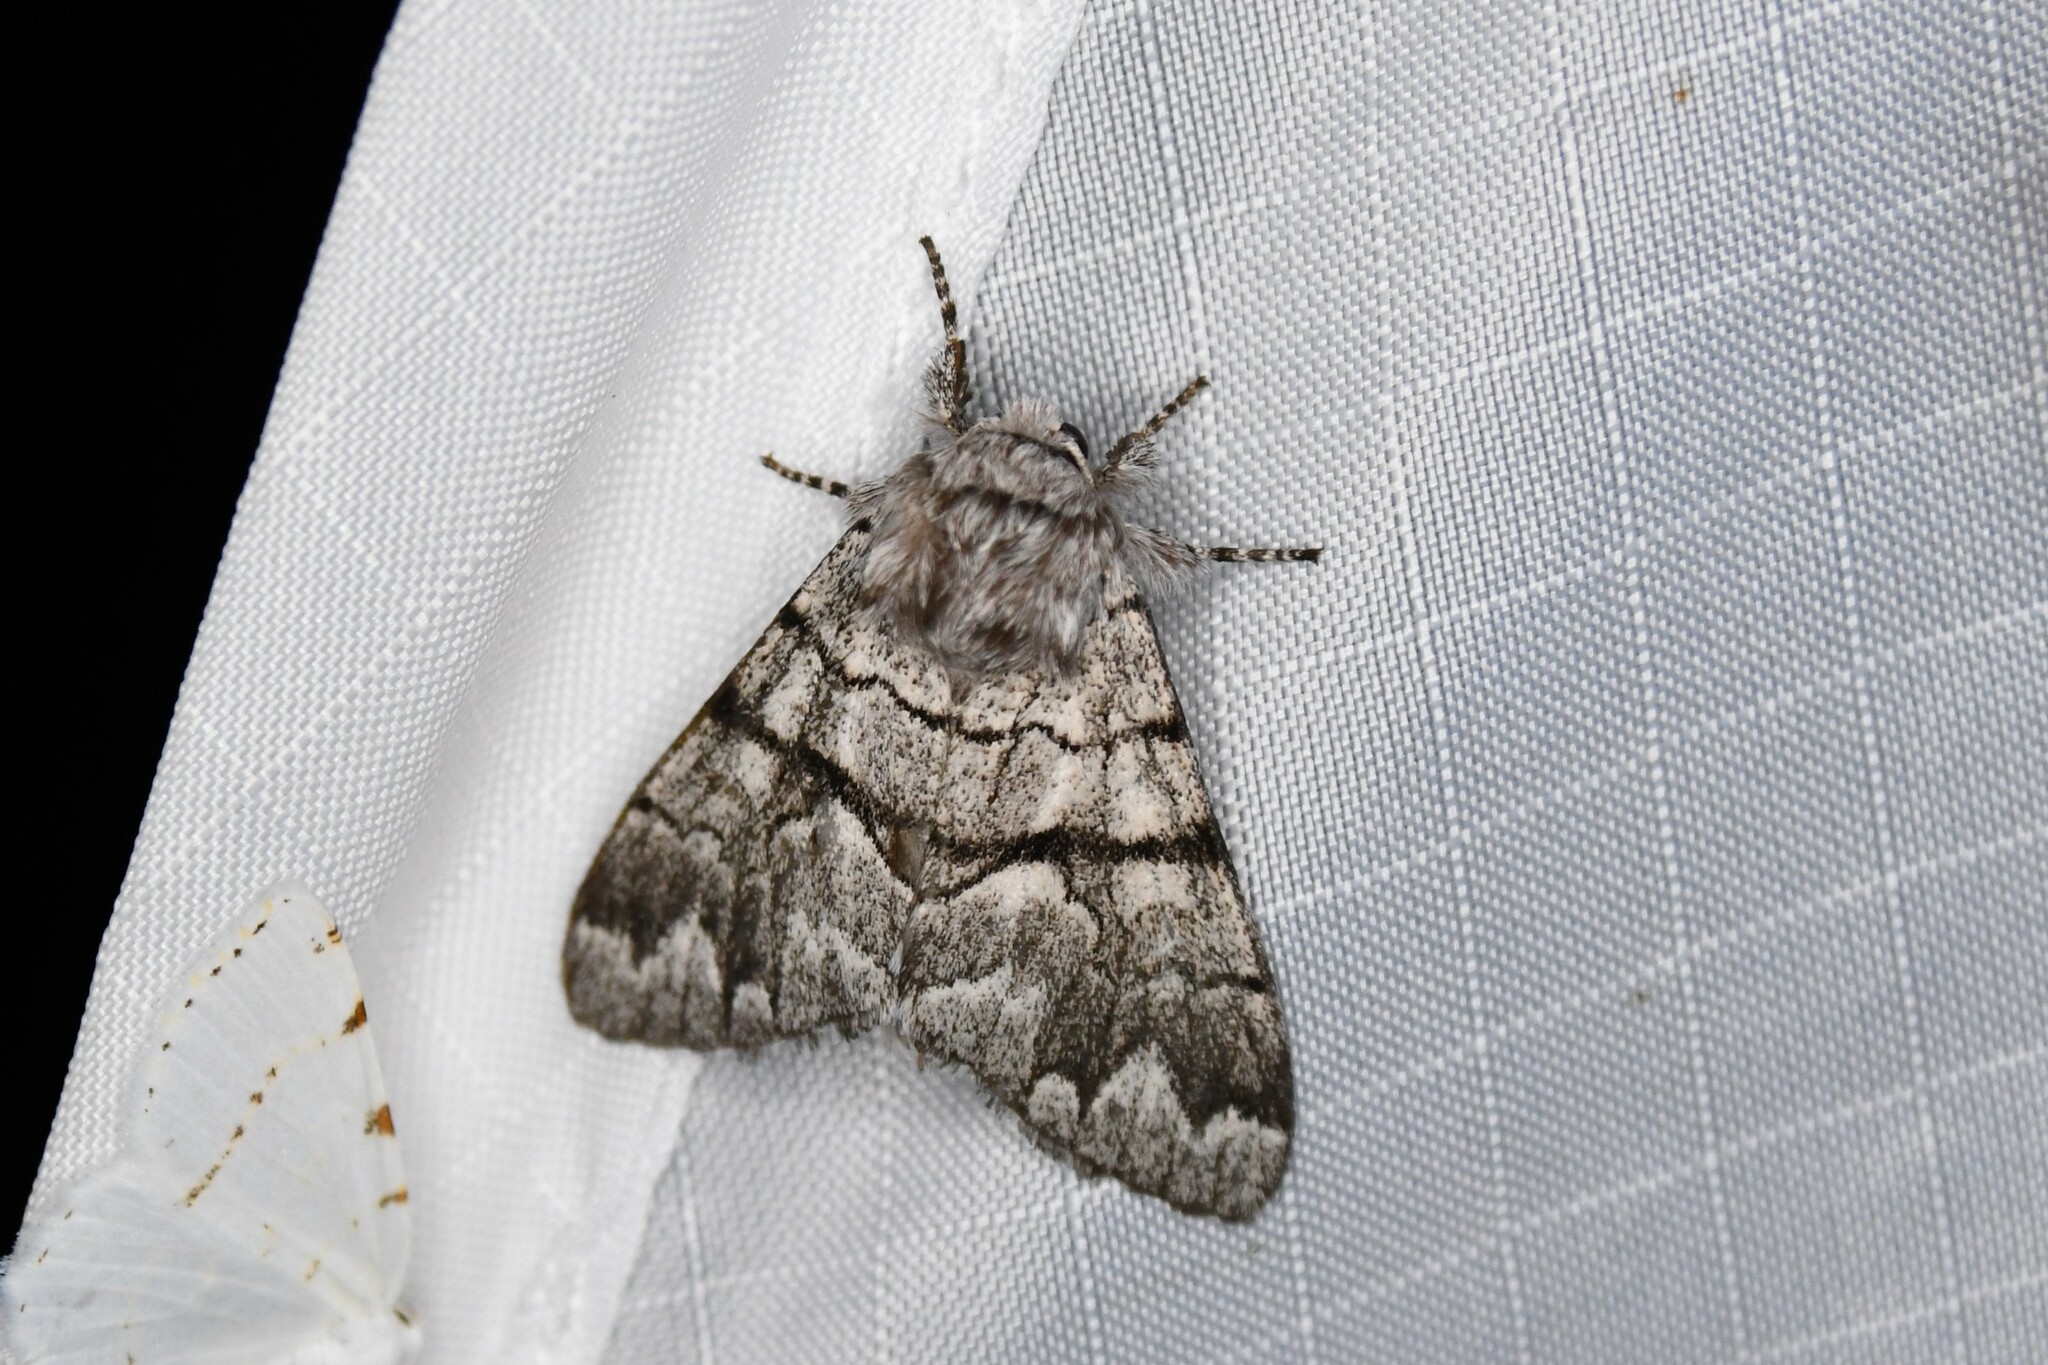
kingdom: Animalia
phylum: Arthropoda
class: Insecta
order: Lepidoptera
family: Noctuidae
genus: Panthea
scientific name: Panthea furcilla
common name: Eastern panthea moth
